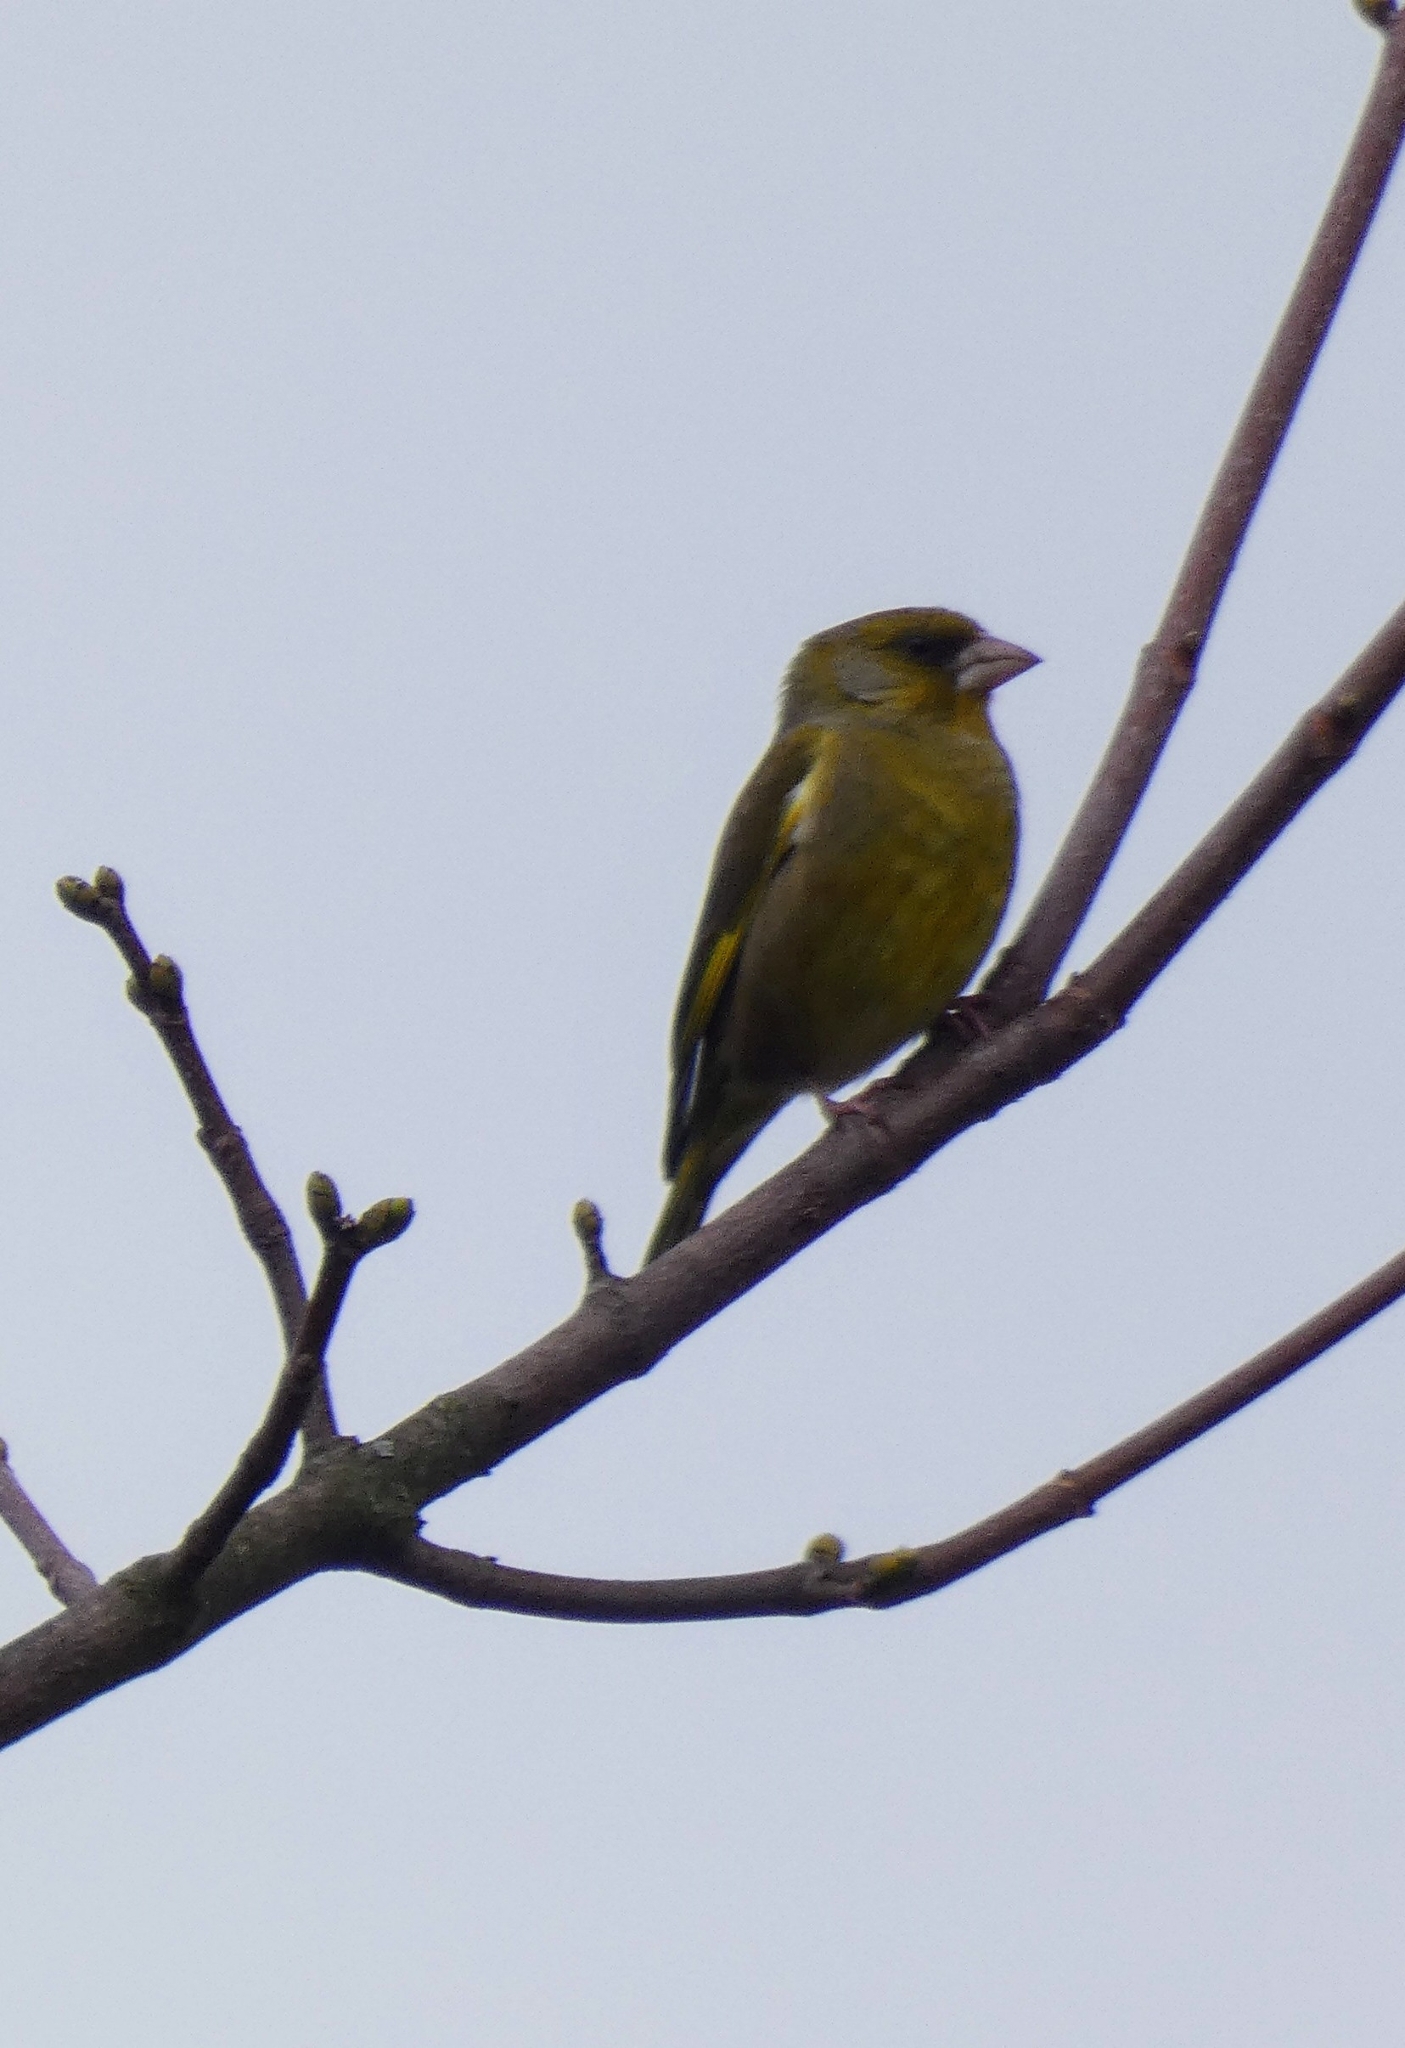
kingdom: Plantae
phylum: Tracheophyta
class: Liliopsida
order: Poales
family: Poaceae
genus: Chloris
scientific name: Chloris chloris
